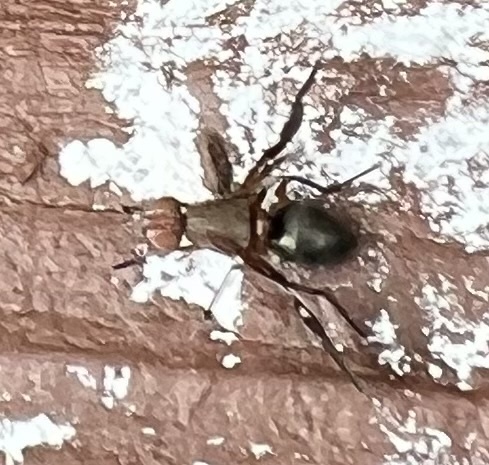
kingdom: Animalia
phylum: Arthropoda
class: Insecta
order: Diptera
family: Ulidiidae
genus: Delphinia
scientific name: Delphinia picta
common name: Common picture-winged fly
